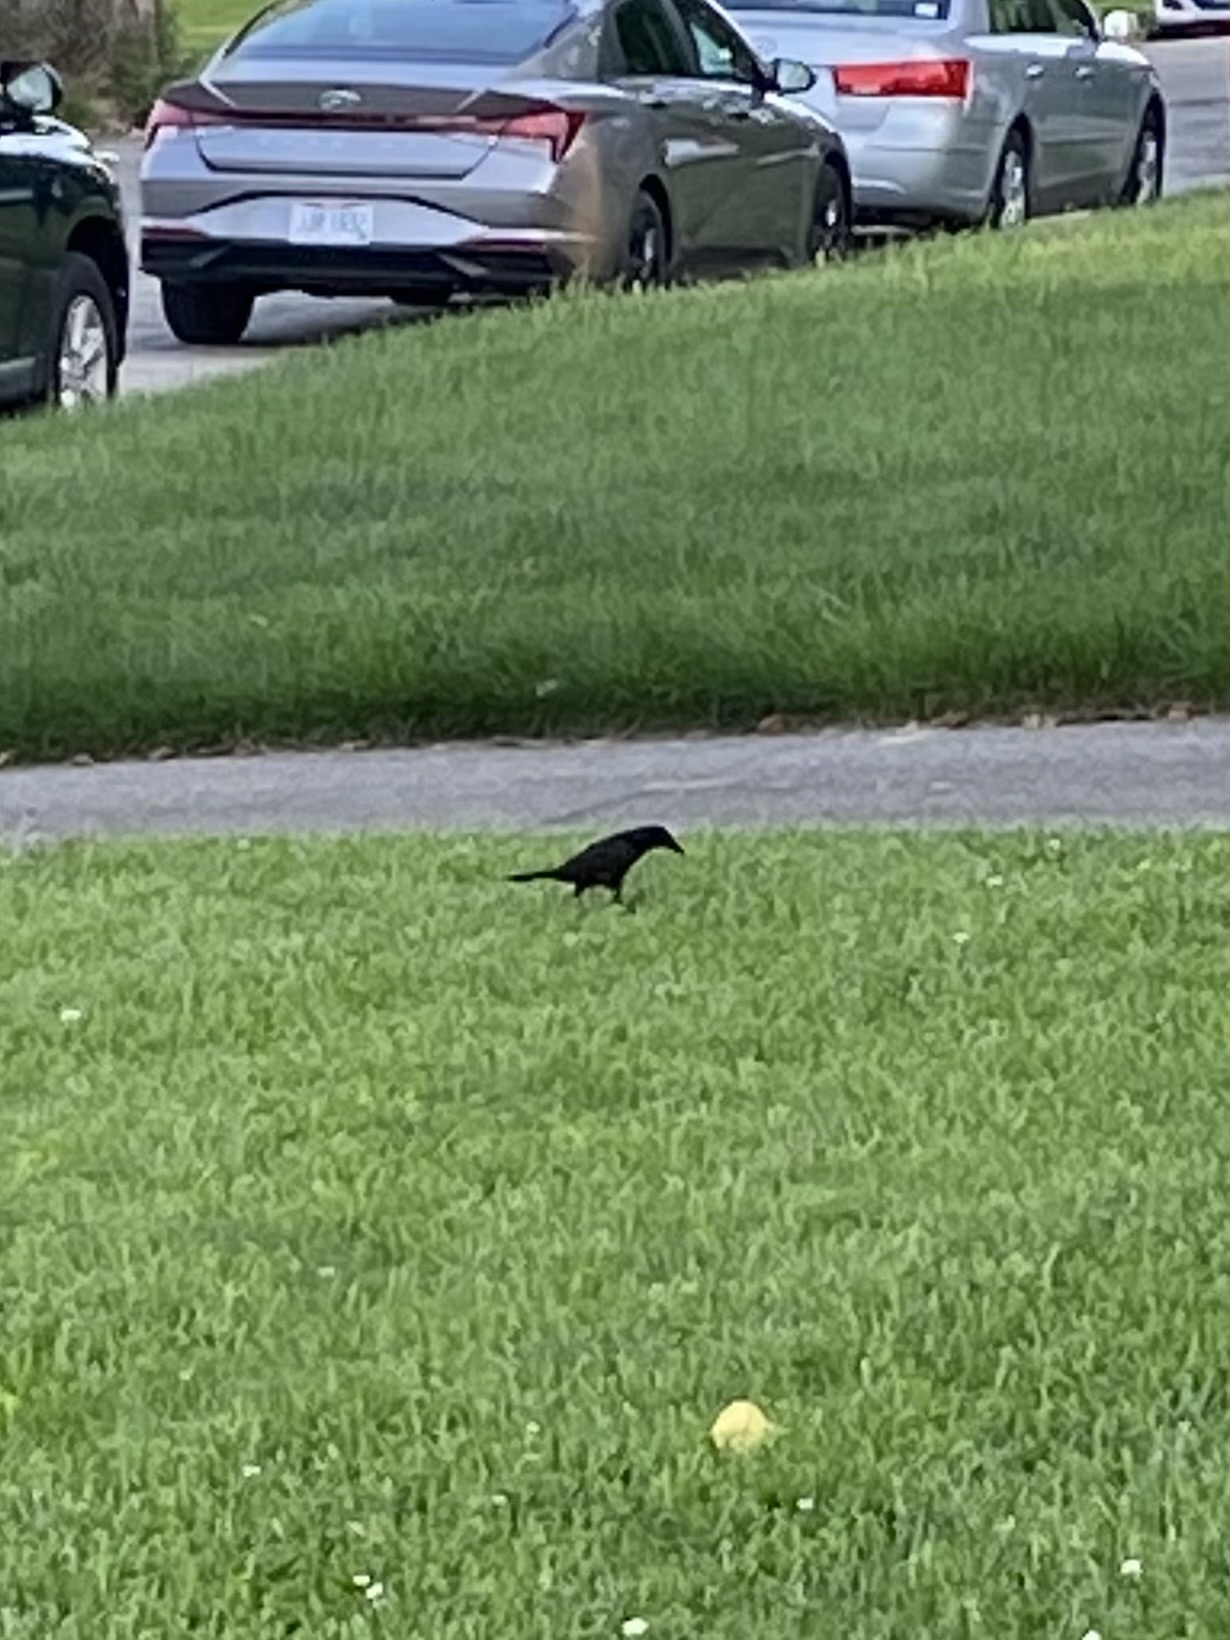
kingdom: Animalia
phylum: Chordata
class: Aves
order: Passeriformes
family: Icteridae
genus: Quiscalus
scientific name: Quiscalus quiscula
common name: Common grackle
